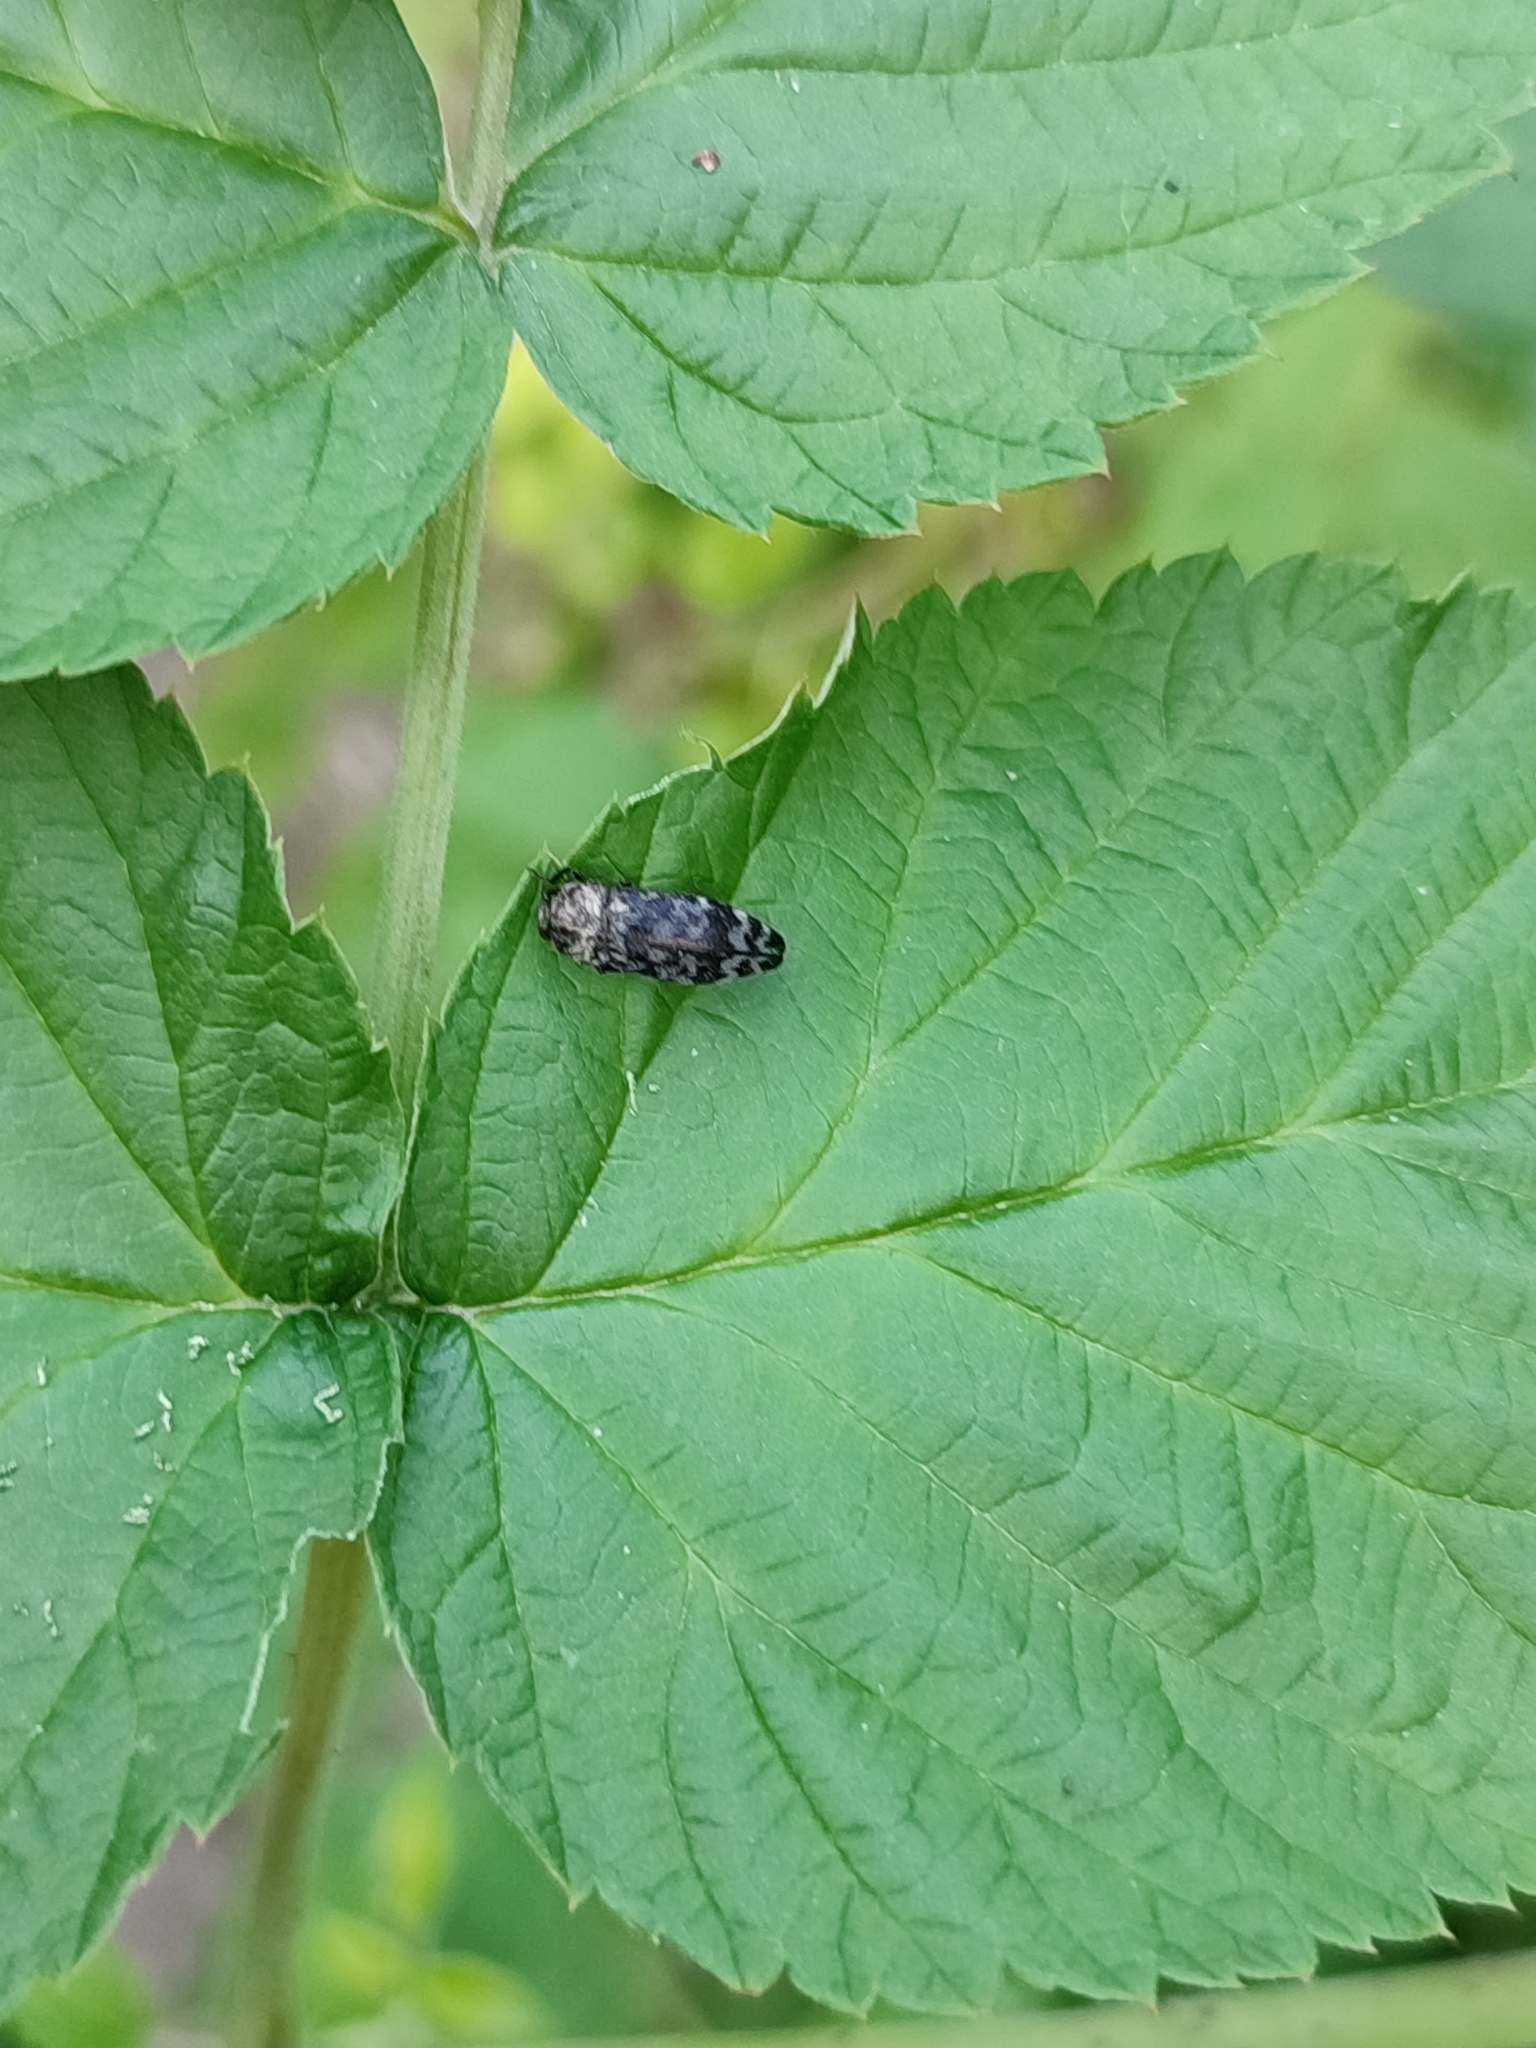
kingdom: Animalia
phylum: Arthropoda
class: Insecta
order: Coleoptera
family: Buprestidae
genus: Coraebus
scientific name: Coraebus rubi
